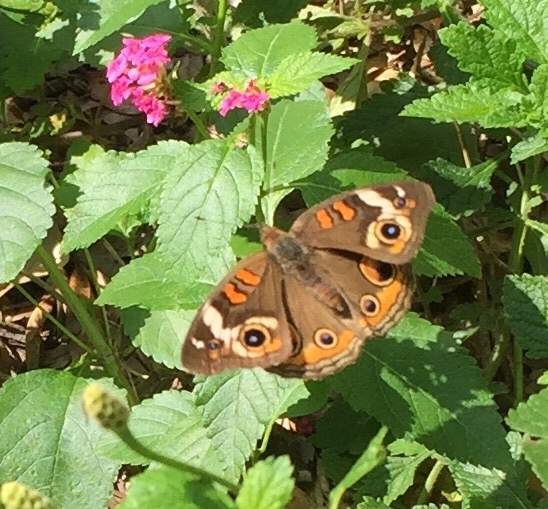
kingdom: Animalia
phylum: Arthropoda
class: Insecta
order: Lepidoptera
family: Nymphalidae
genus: Junonia
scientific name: Junonia coenia
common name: Common buckeye
